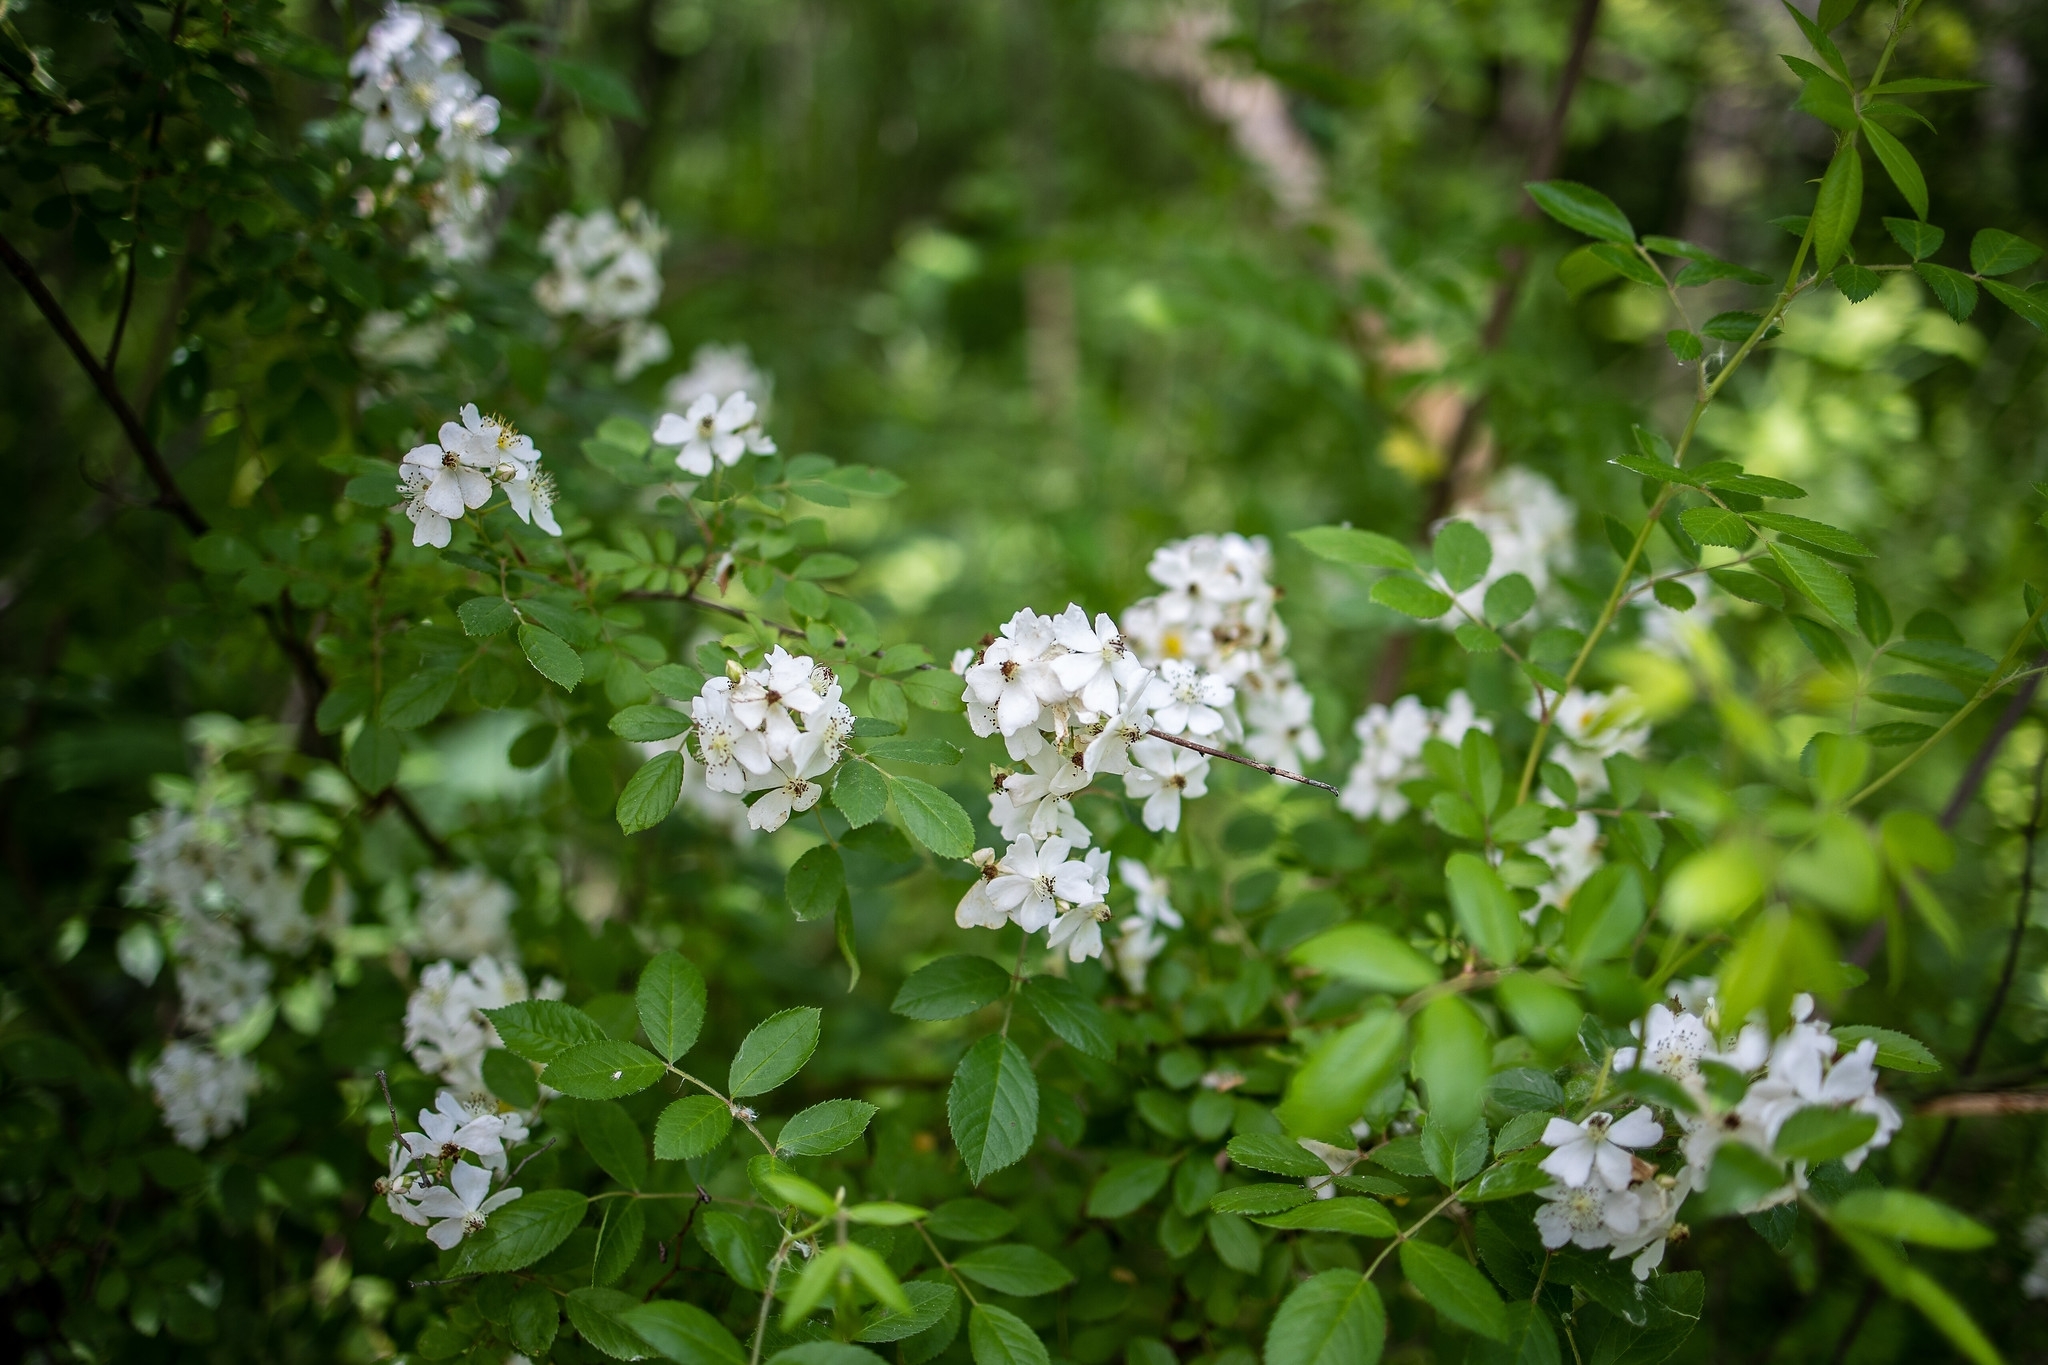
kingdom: Plantae
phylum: Tracheophyta
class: Magnoliopsida
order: Rosales
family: Rosaceae
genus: Rosa
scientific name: Rosa multiflora
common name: Multiflora rose
